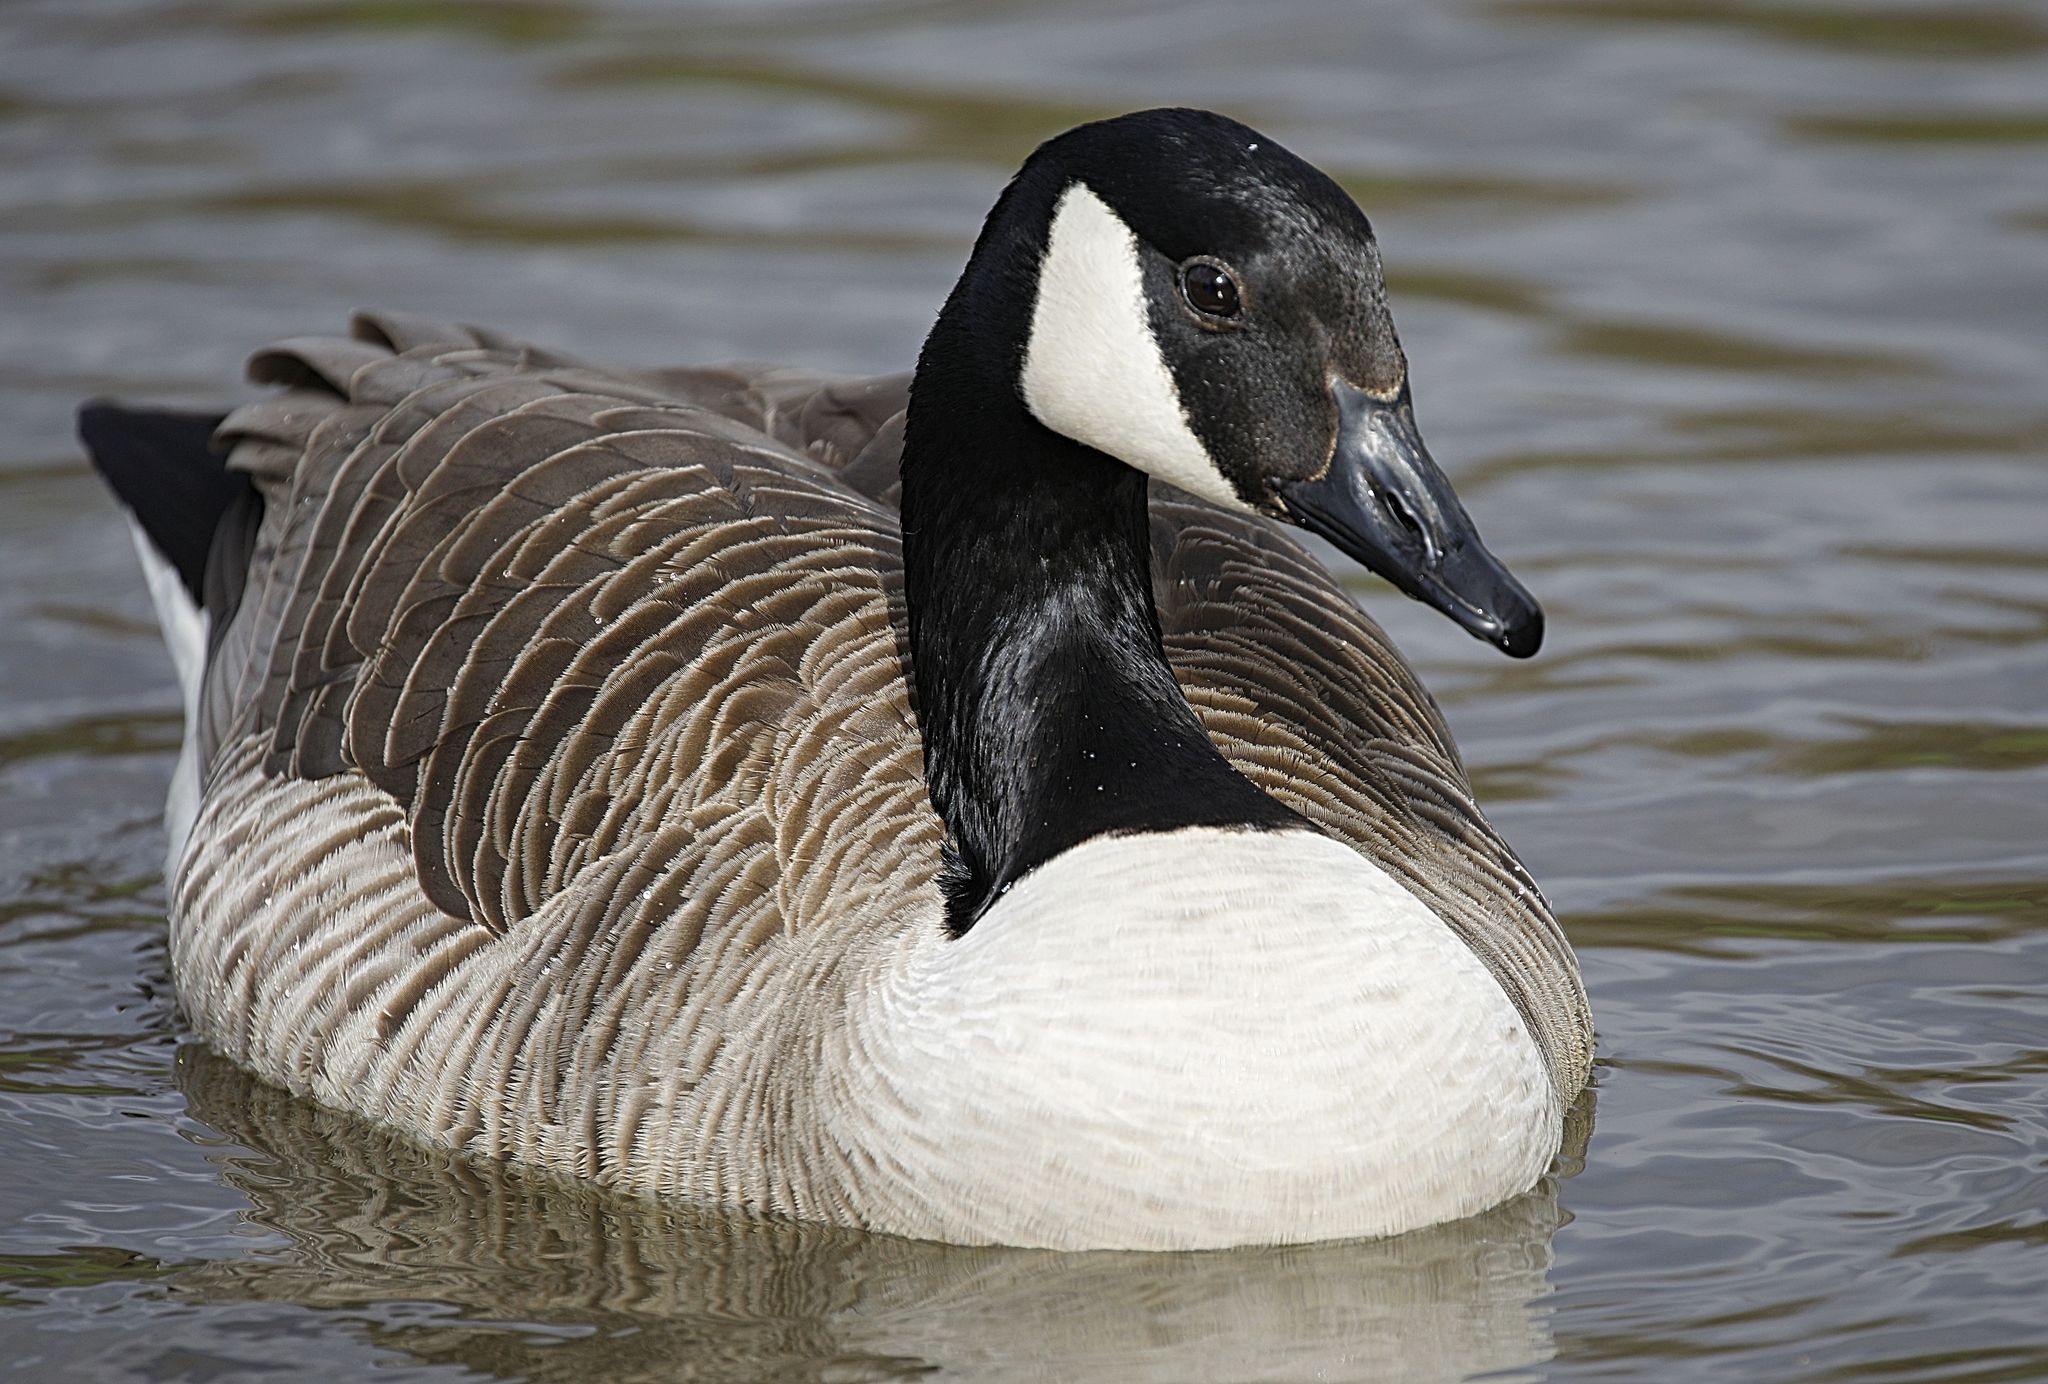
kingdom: Animalia
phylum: Chordata
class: Aves
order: Anseriformes
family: Anatidae
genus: Branta
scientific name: Branta canadensis
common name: Canada goose
